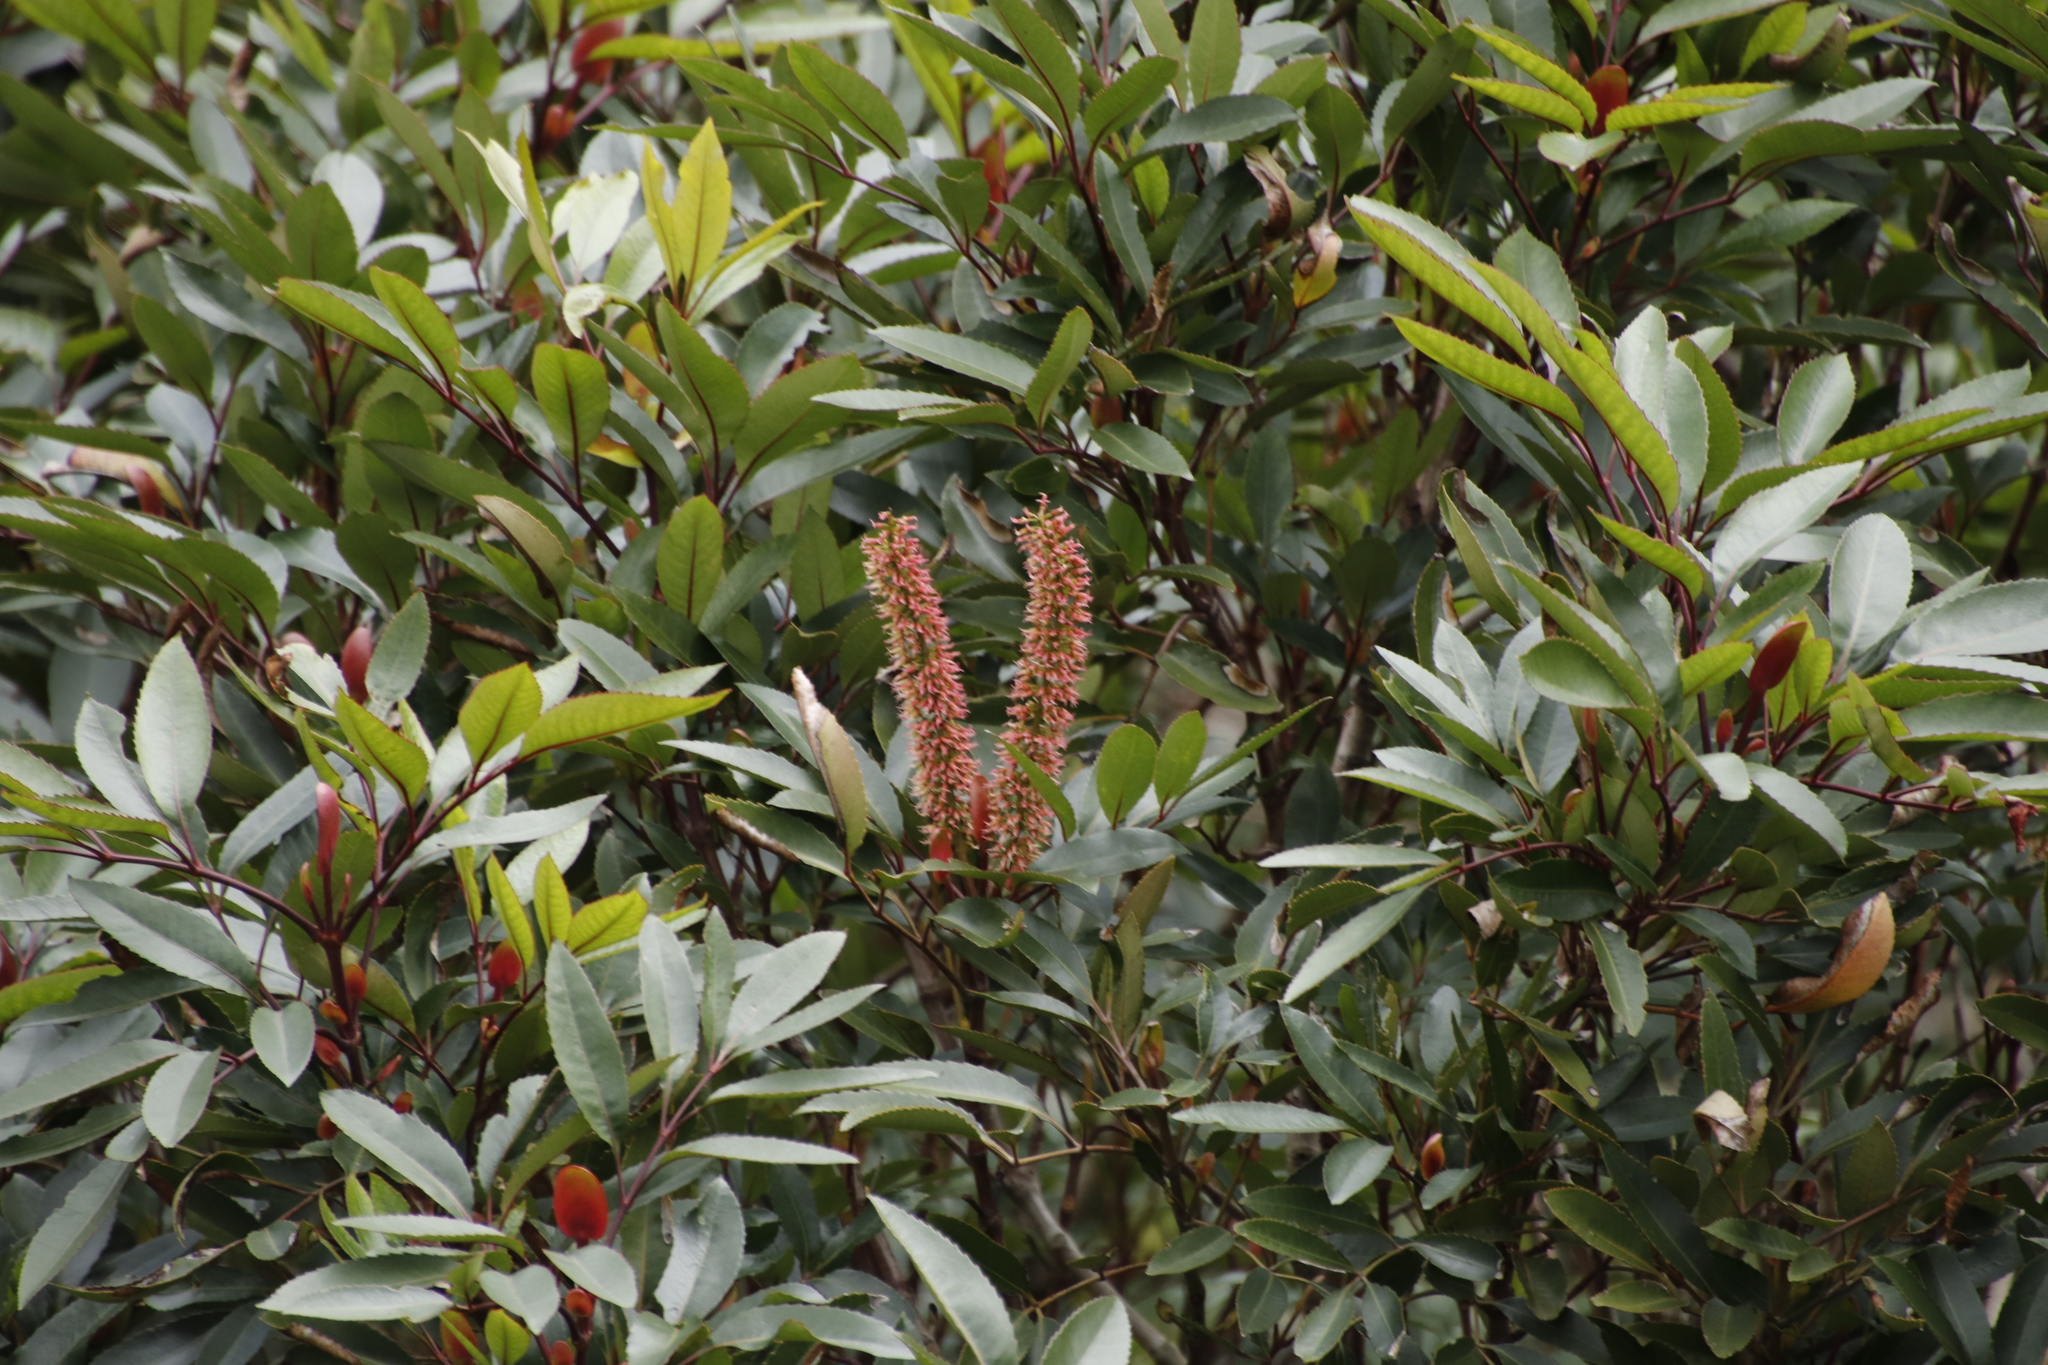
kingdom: Plantae
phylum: Tracheophyta
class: Magnoliopsida
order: Oxalidales
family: Cunoniaceae
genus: Cunonia
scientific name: Cunonia capensis
